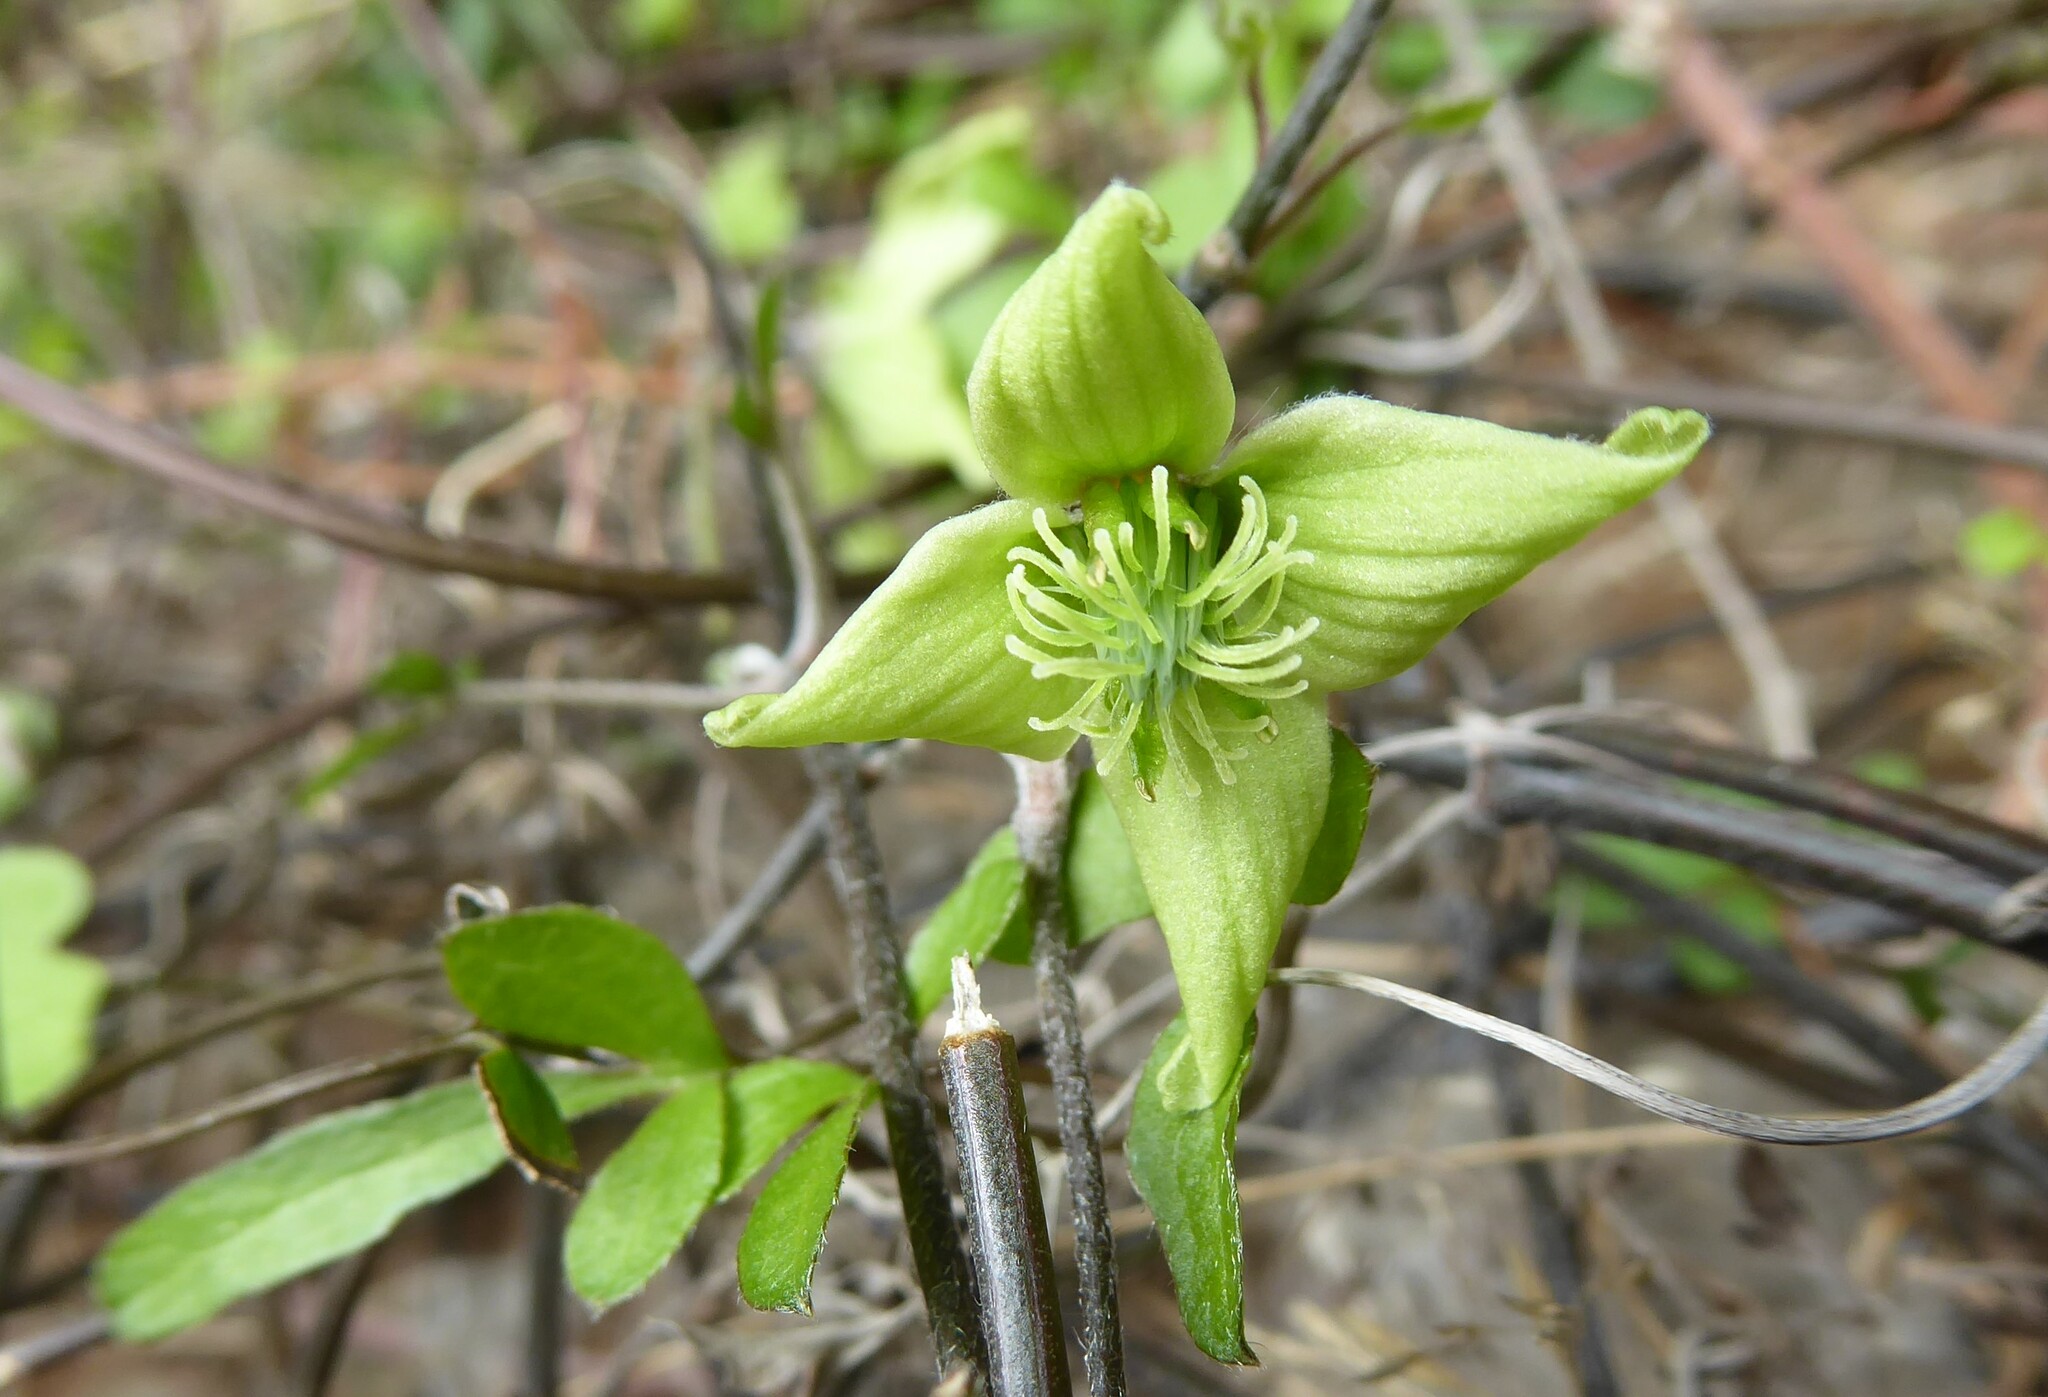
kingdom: Plantae
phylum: Tracheophyta
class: Magnoliopsida
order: Ranunculales
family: Ranunculaceae
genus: Clematis
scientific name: Clematis marata
